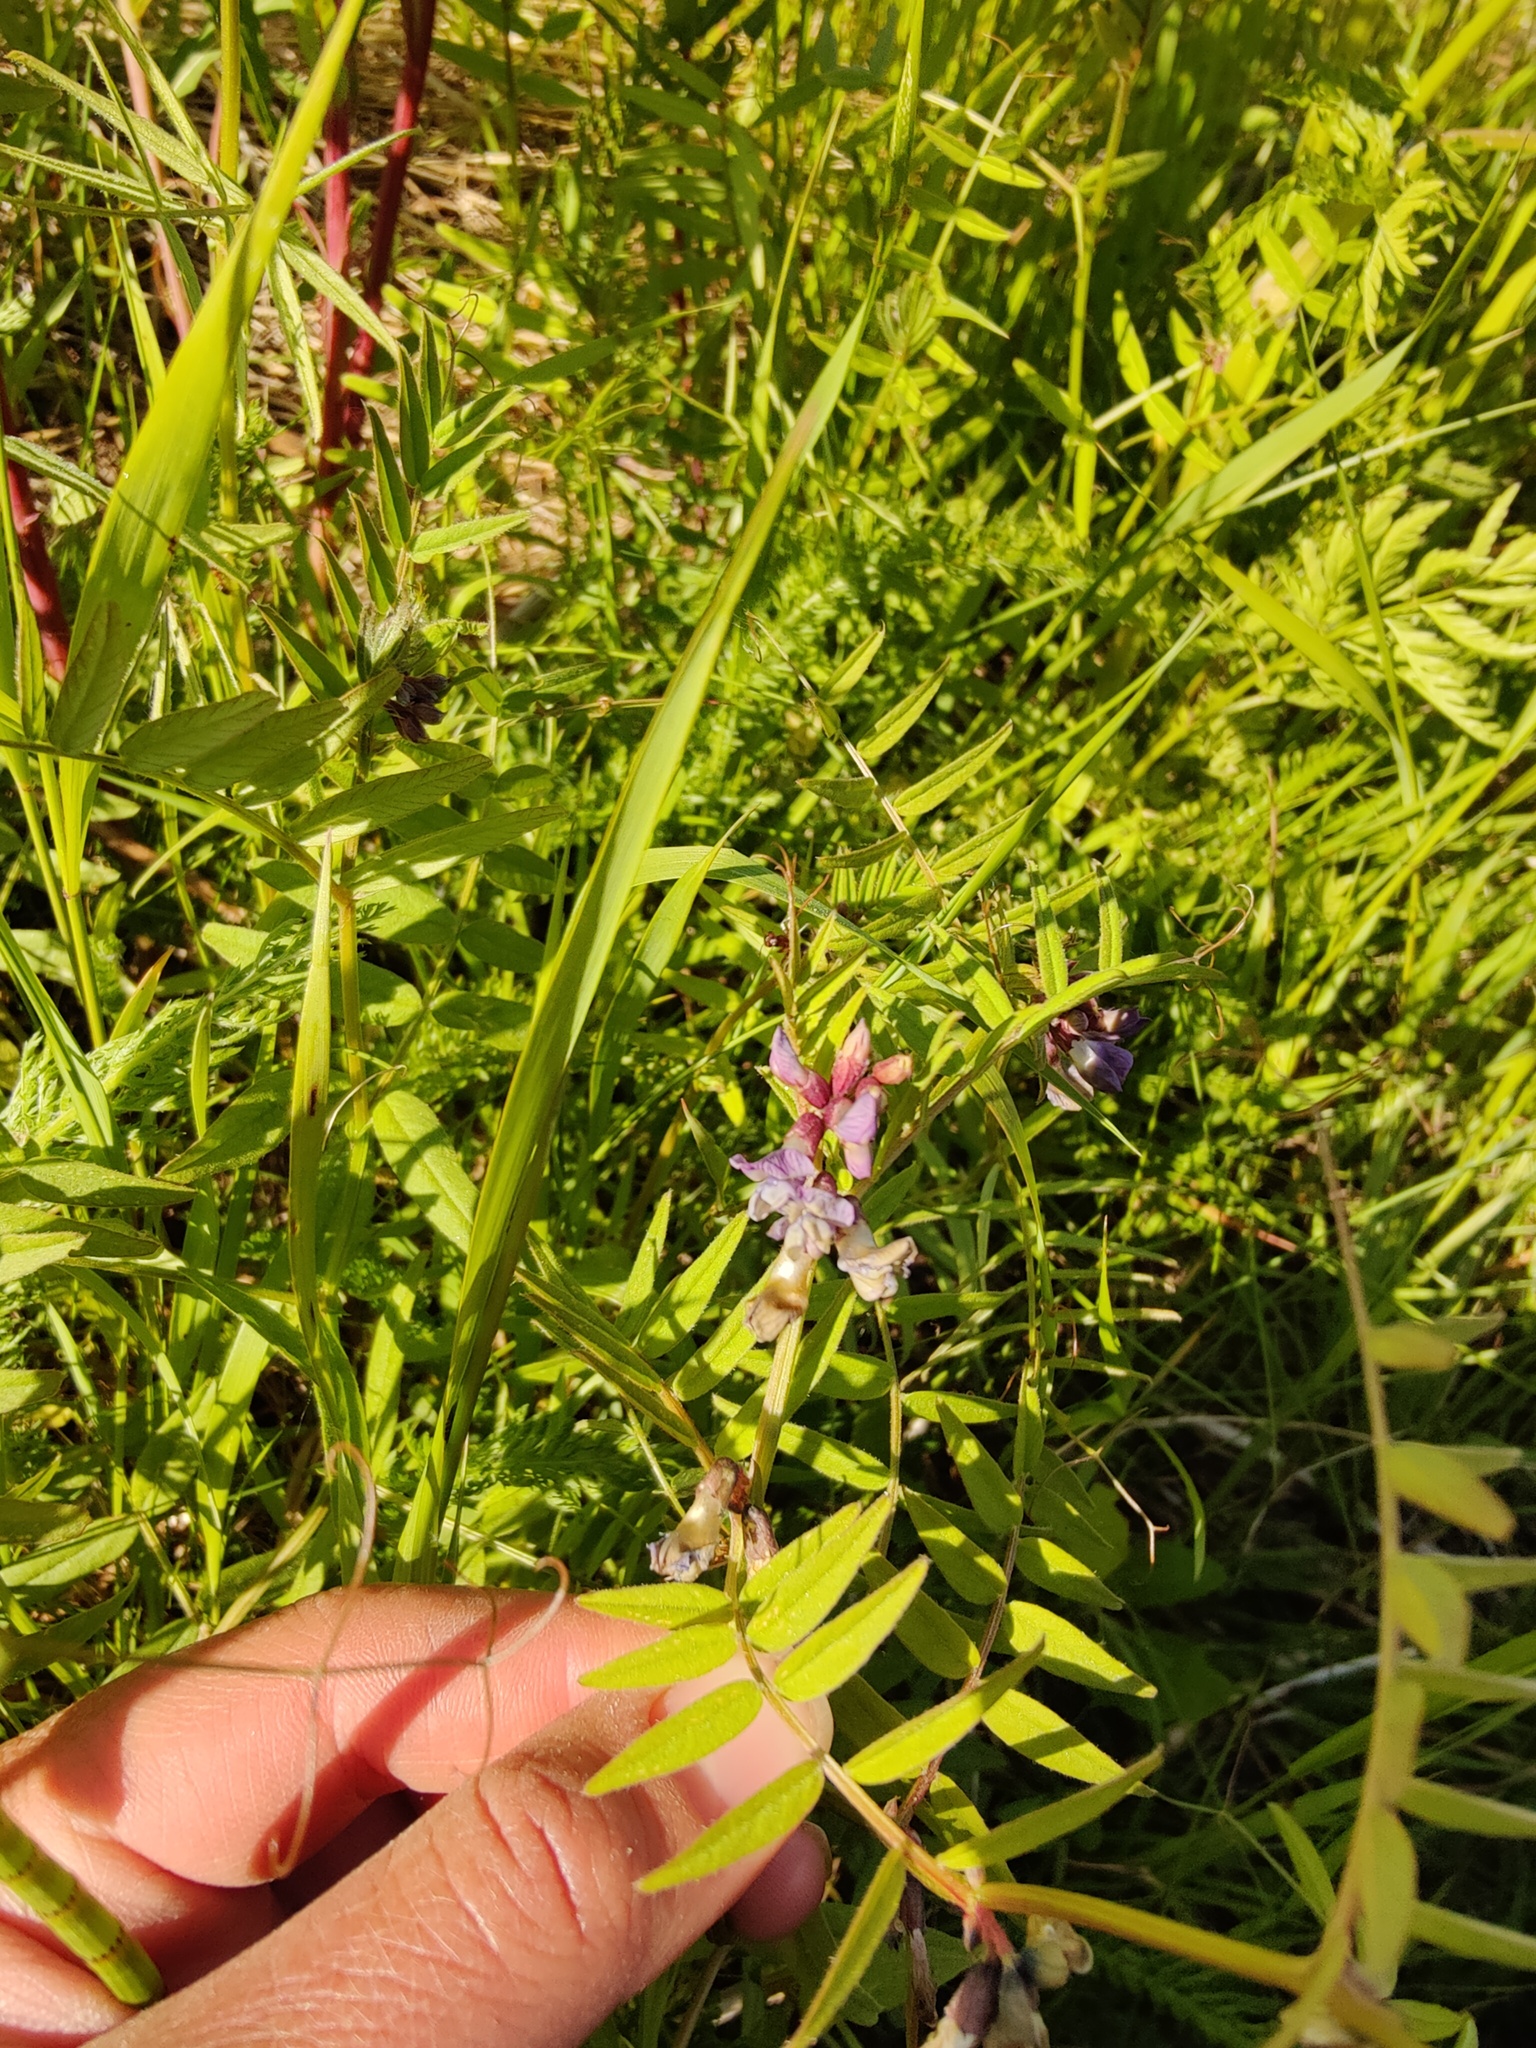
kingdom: Plantae
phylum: Tracheophyta
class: Magnoliopsida
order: Fabales
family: Fabaceae
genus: Vicia
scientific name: Vicia sepium
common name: Bush vetch
